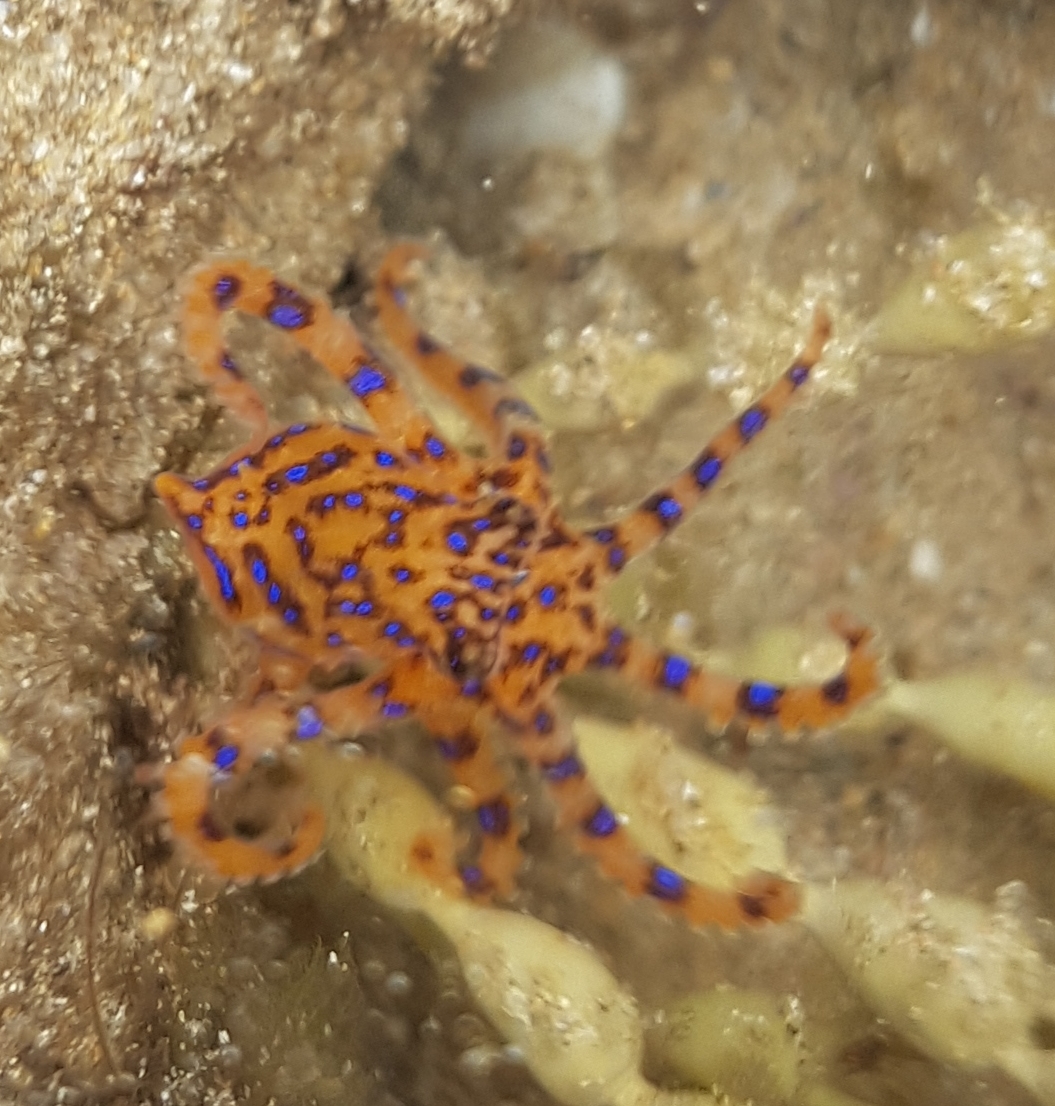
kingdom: Animalia
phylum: Mollusca
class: Cephalopoda
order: Octopoda
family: Octopodidae
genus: Hapalochlaena
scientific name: Hapalochlaena maculosa
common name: Blue-ringed octopus
